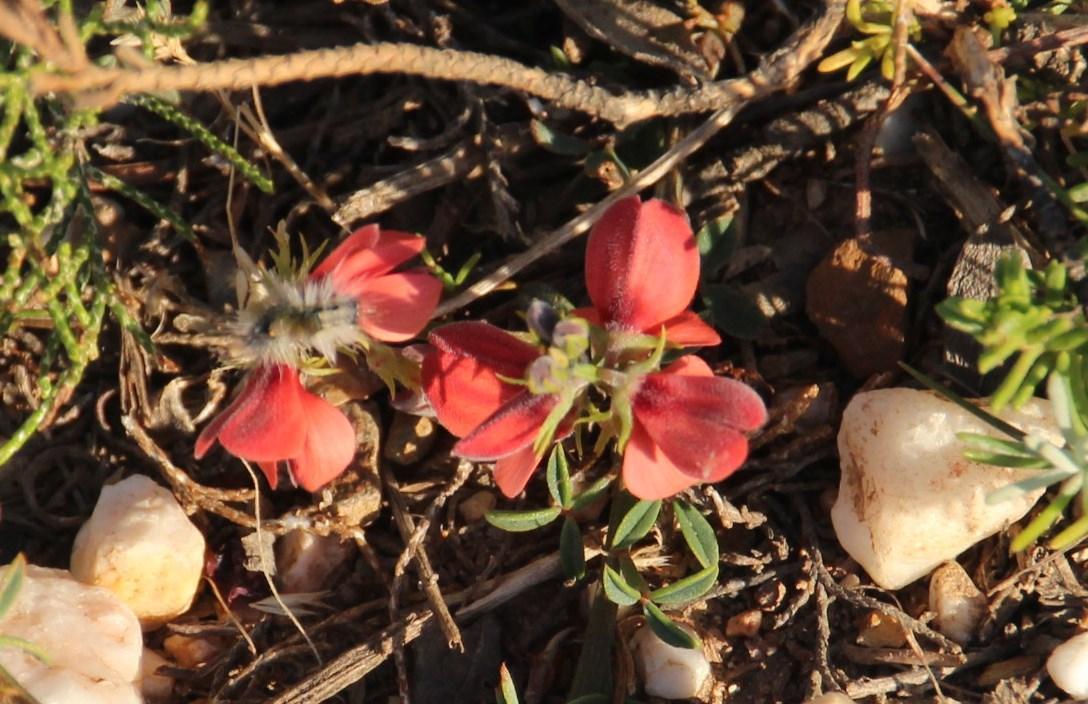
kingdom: Plantae
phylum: Tracheophyta
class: Magnoliopsida
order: Fabales
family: Fabaceae
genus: Indigofera
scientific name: Indigofera heterophylla
